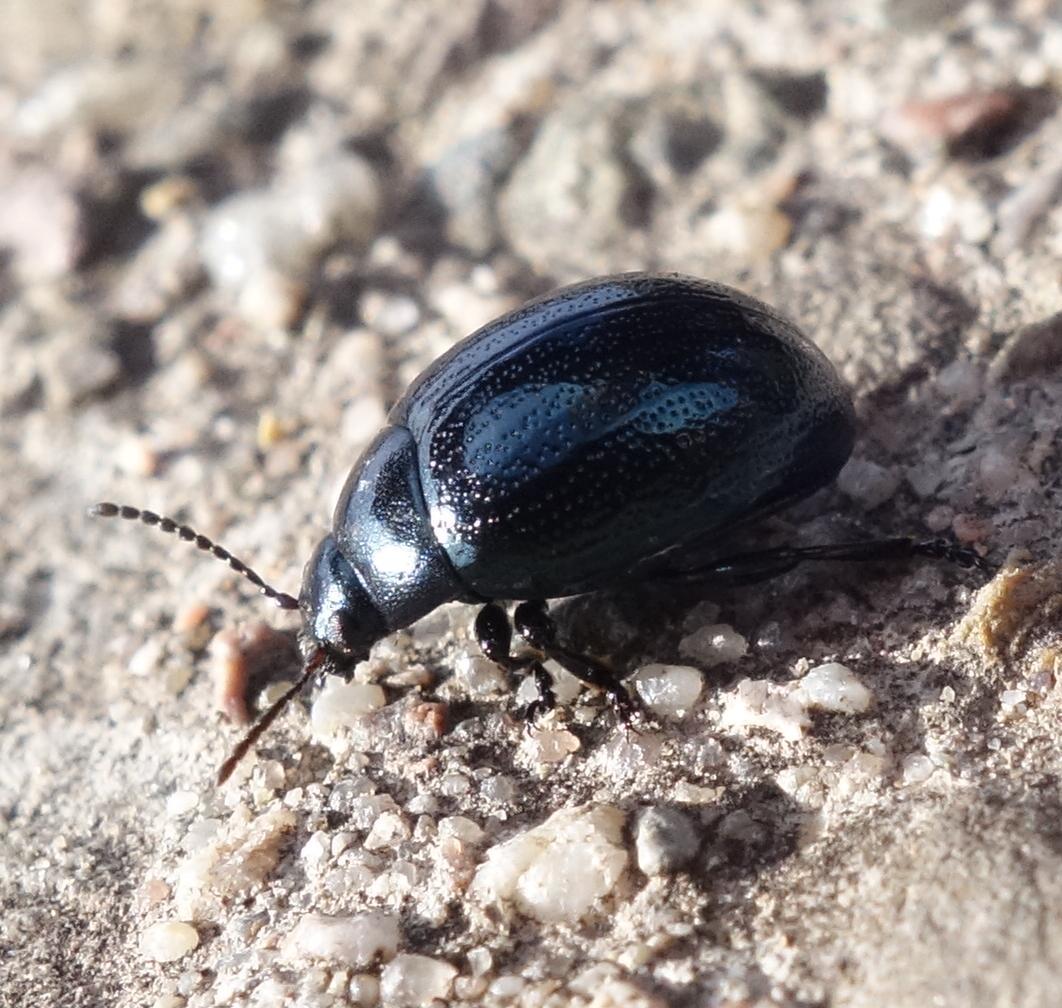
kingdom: Animalia
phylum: Arthropoda
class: Insecta
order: Coleoptera
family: Chrysomelidae
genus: Chrysolina
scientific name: Chrysolina haemoptera
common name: Plantain leaf beetle
